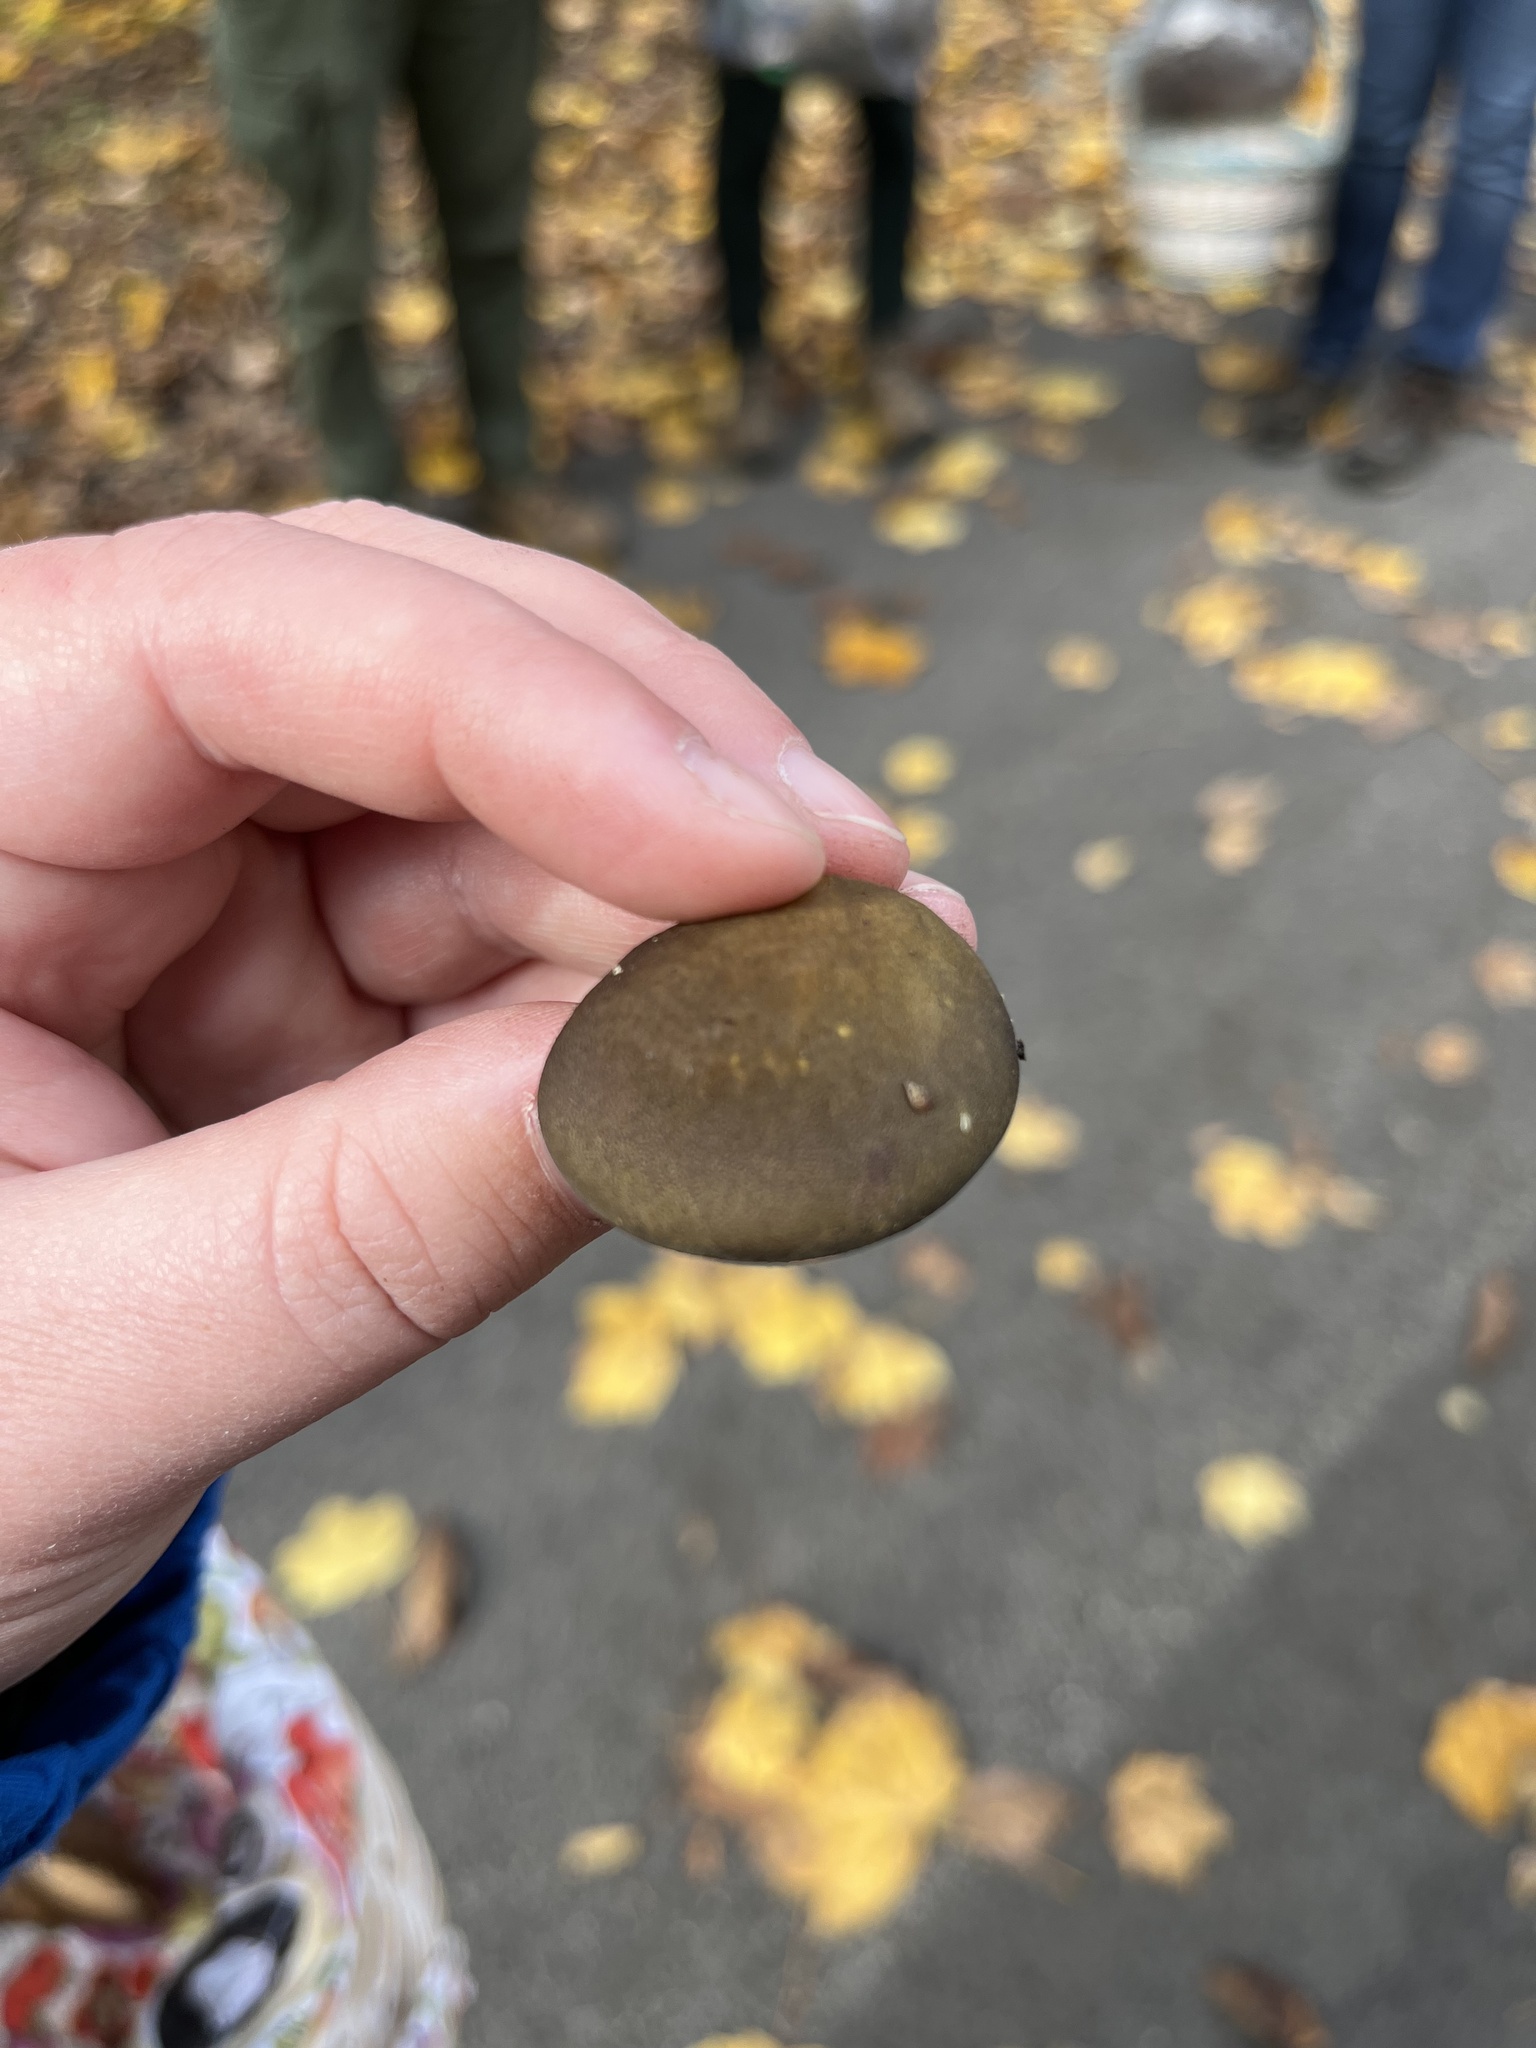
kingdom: Fungi
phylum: Basidiomycota
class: Agaricomycetes
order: Agaricales
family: Sarcomyxaceae
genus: Sarcomyxa
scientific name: Sarcomyxa serotina
